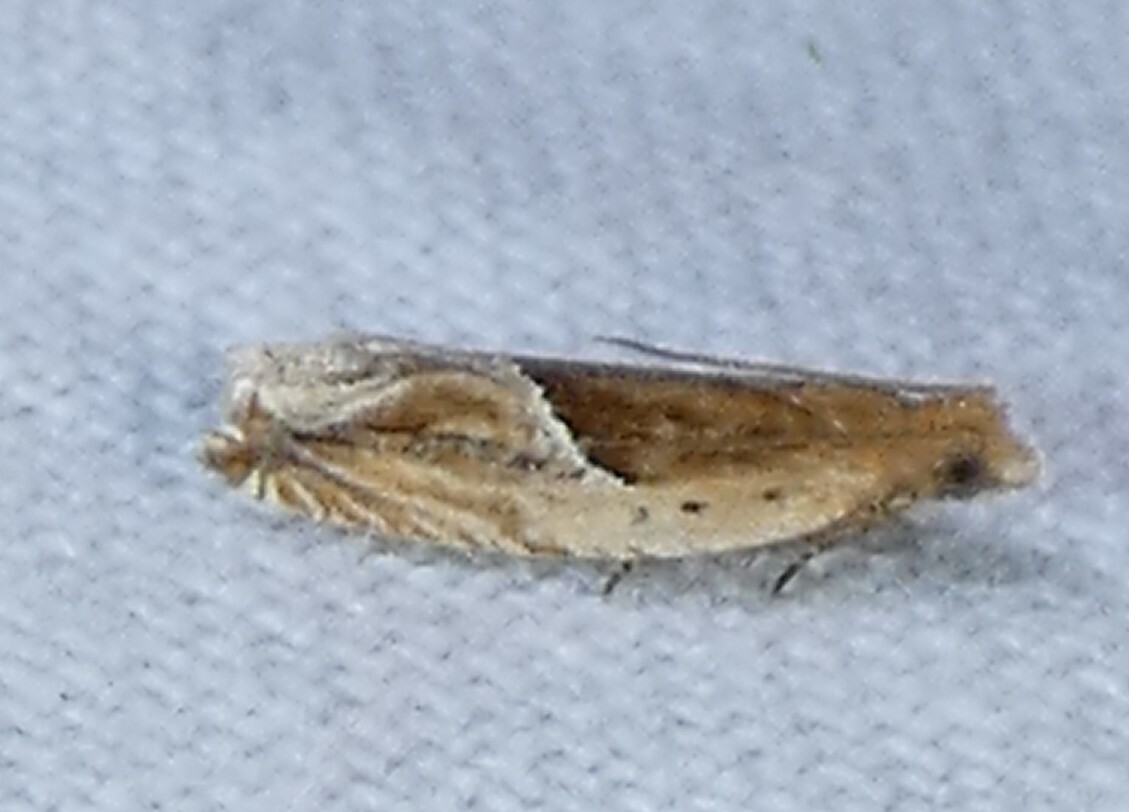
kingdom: Animalia
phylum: Arthropoda
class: Insecta
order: Lepidoptera
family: Tortricidae
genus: Ancylis
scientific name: Ancylis comptana
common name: Little roller
